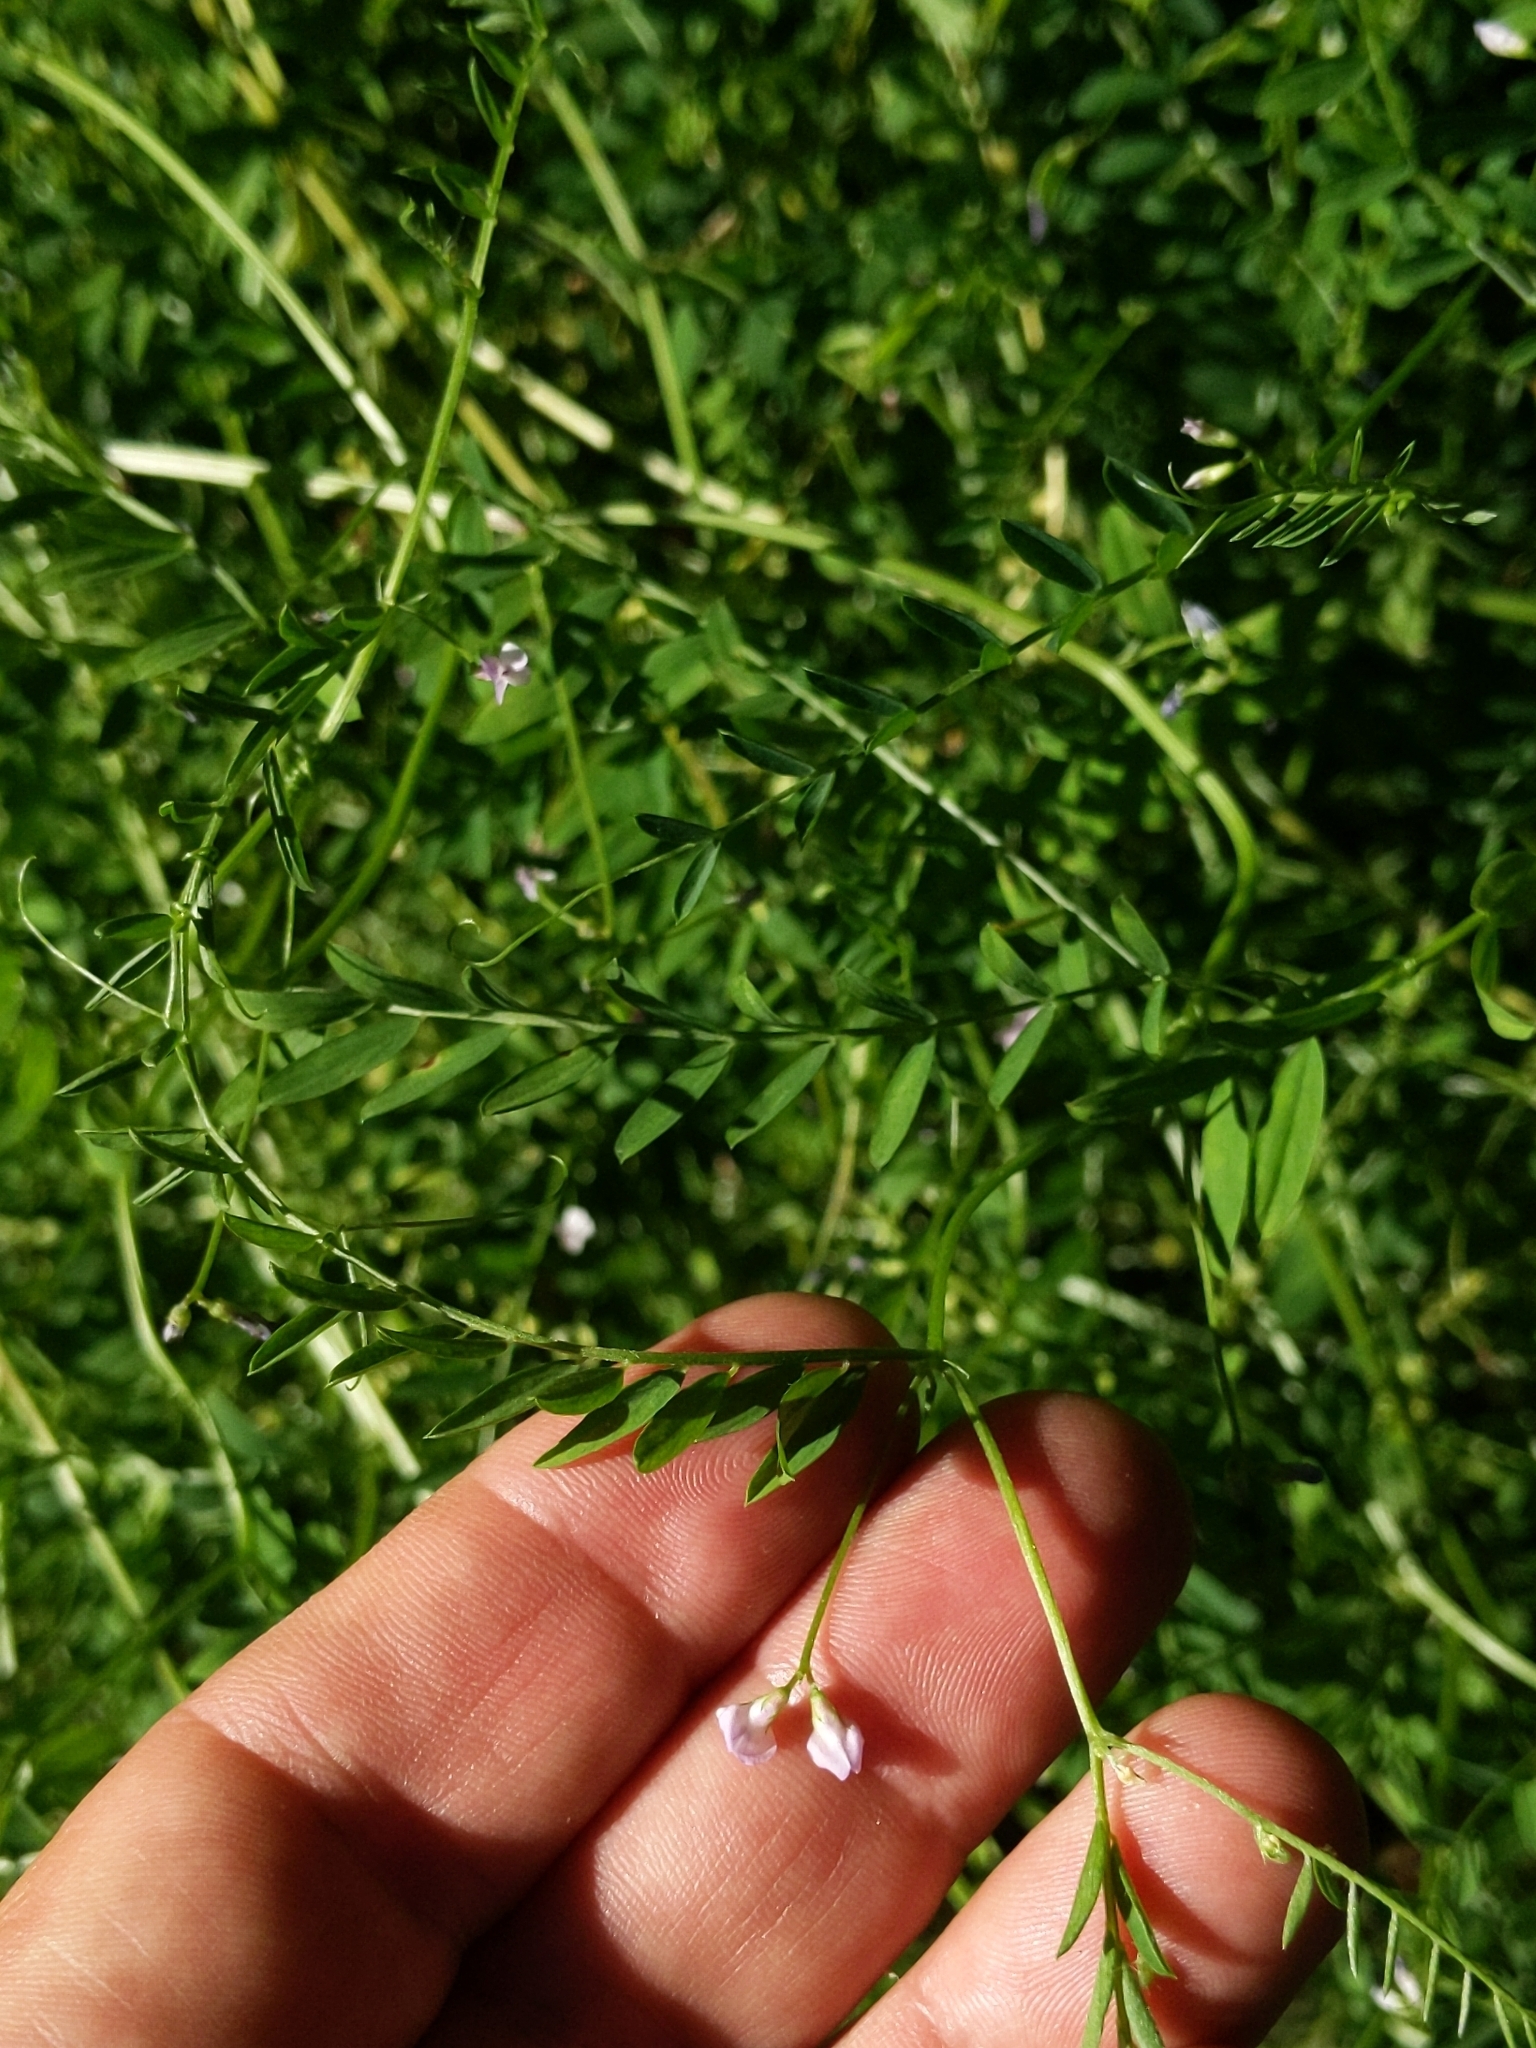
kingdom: Plantae
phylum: Tracheophyta
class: Magnoliopsida
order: Fabales
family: Fabaceae
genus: Vicia
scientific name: Vicia disperma
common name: European vetch
